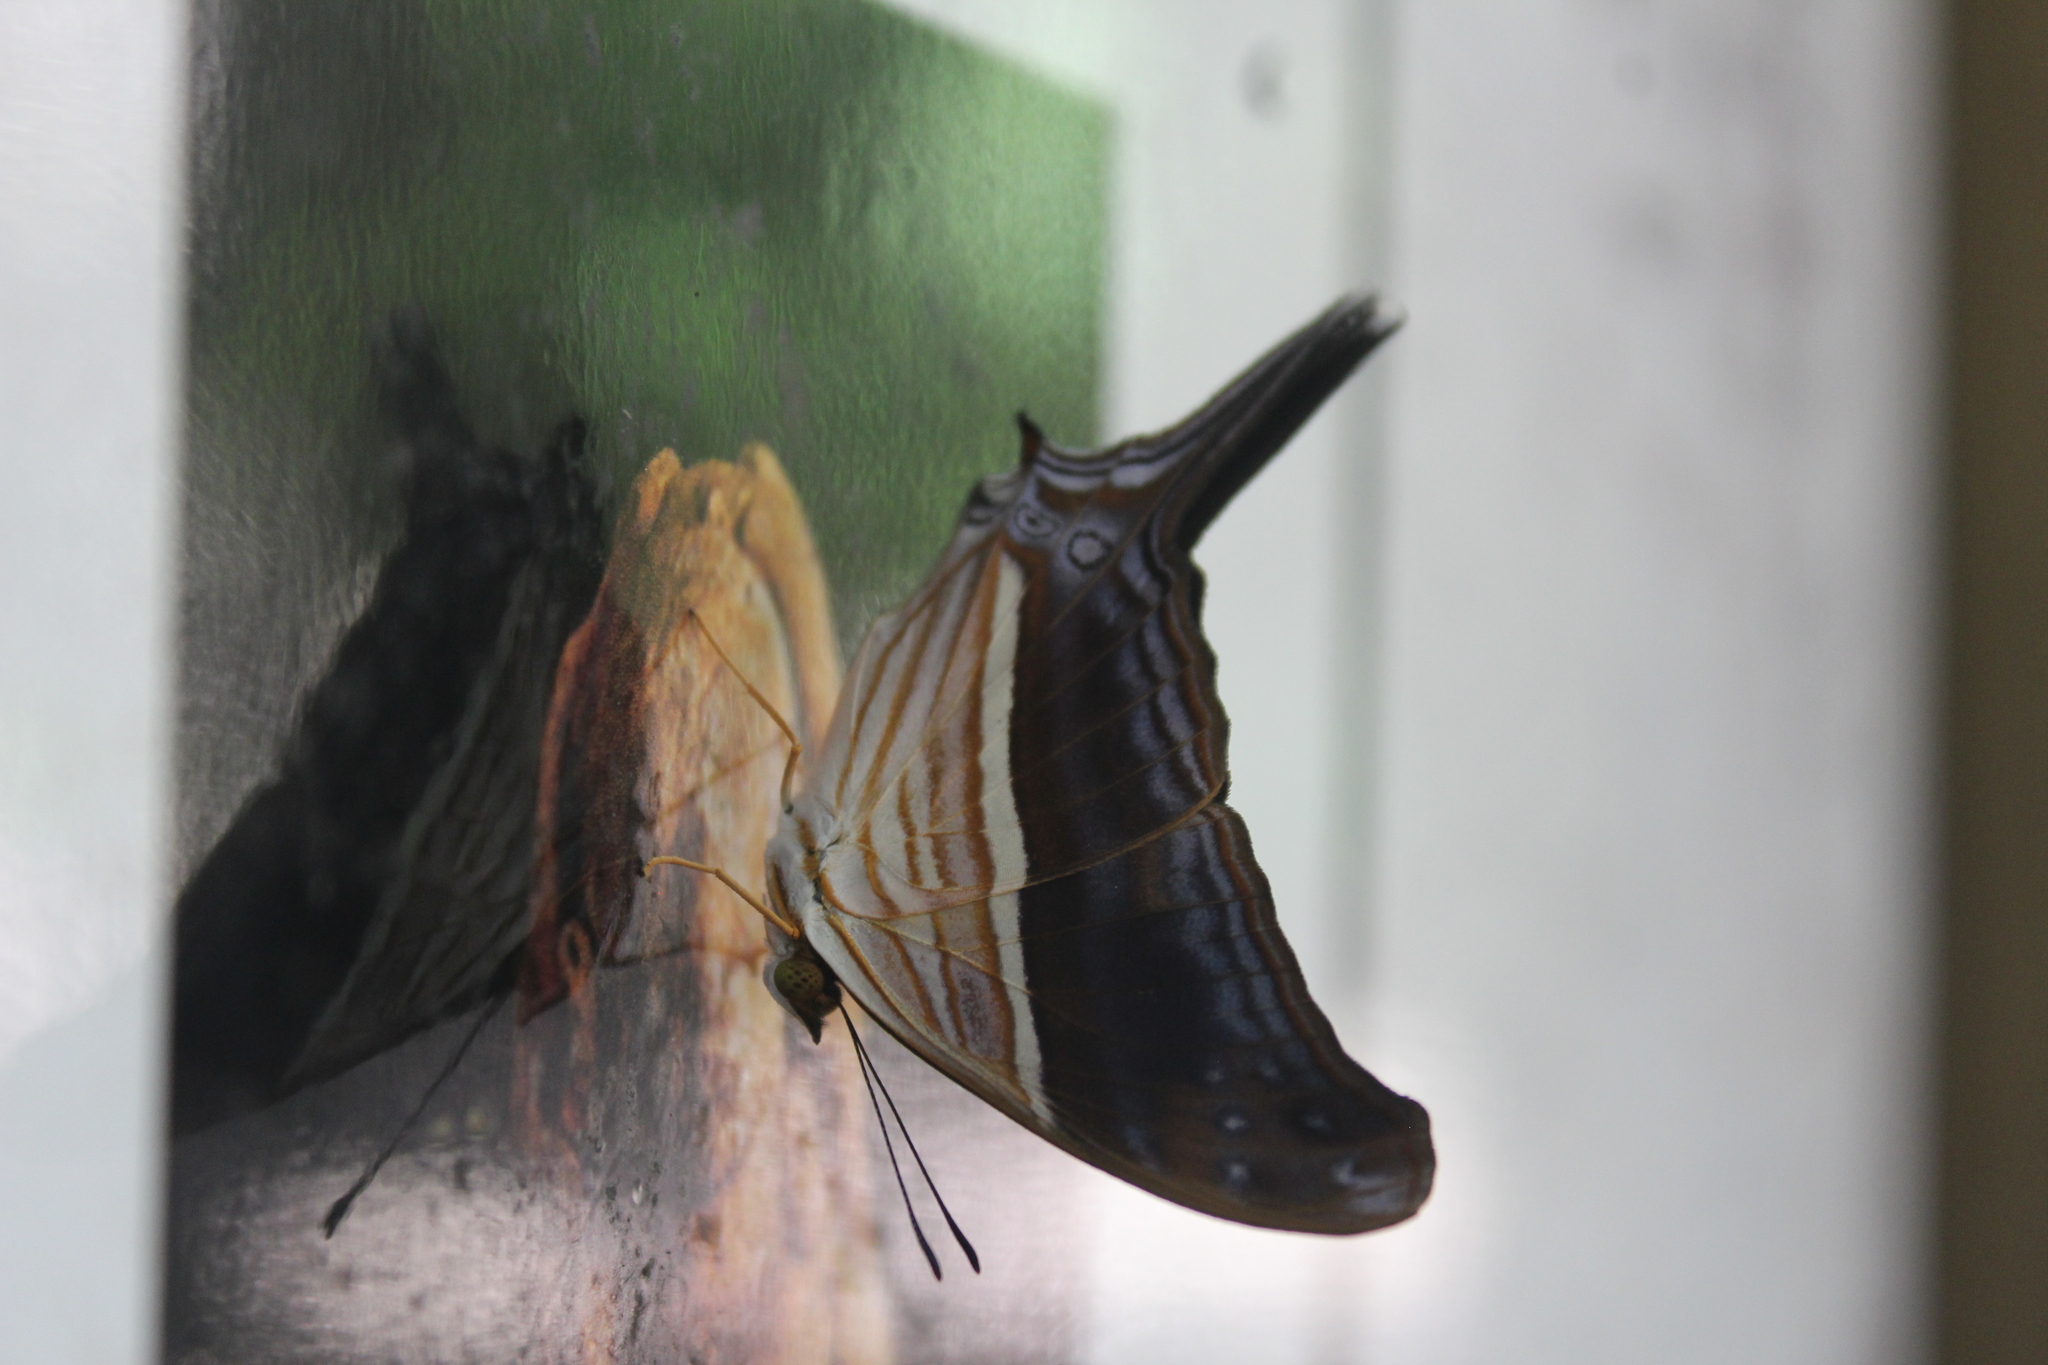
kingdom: Animalia
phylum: Arthropoda
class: Insecta
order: Lepidoptera
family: Nymphalidae
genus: Marpesia
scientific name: Marpesia chiron
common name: Many-banded daggerwing
